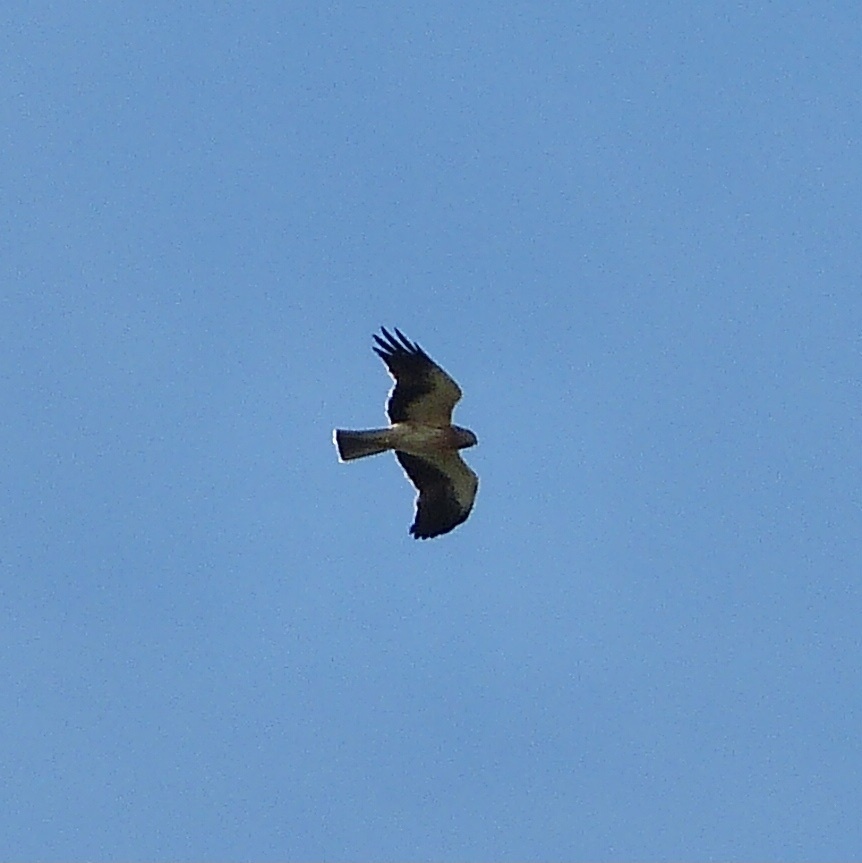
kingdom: Animalia
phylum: Chordata
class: Aves
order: Accipitriformes
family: Accipitridae
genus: Hieraaetus
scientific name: Hieraaetus pennatus
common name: Booted eagle
